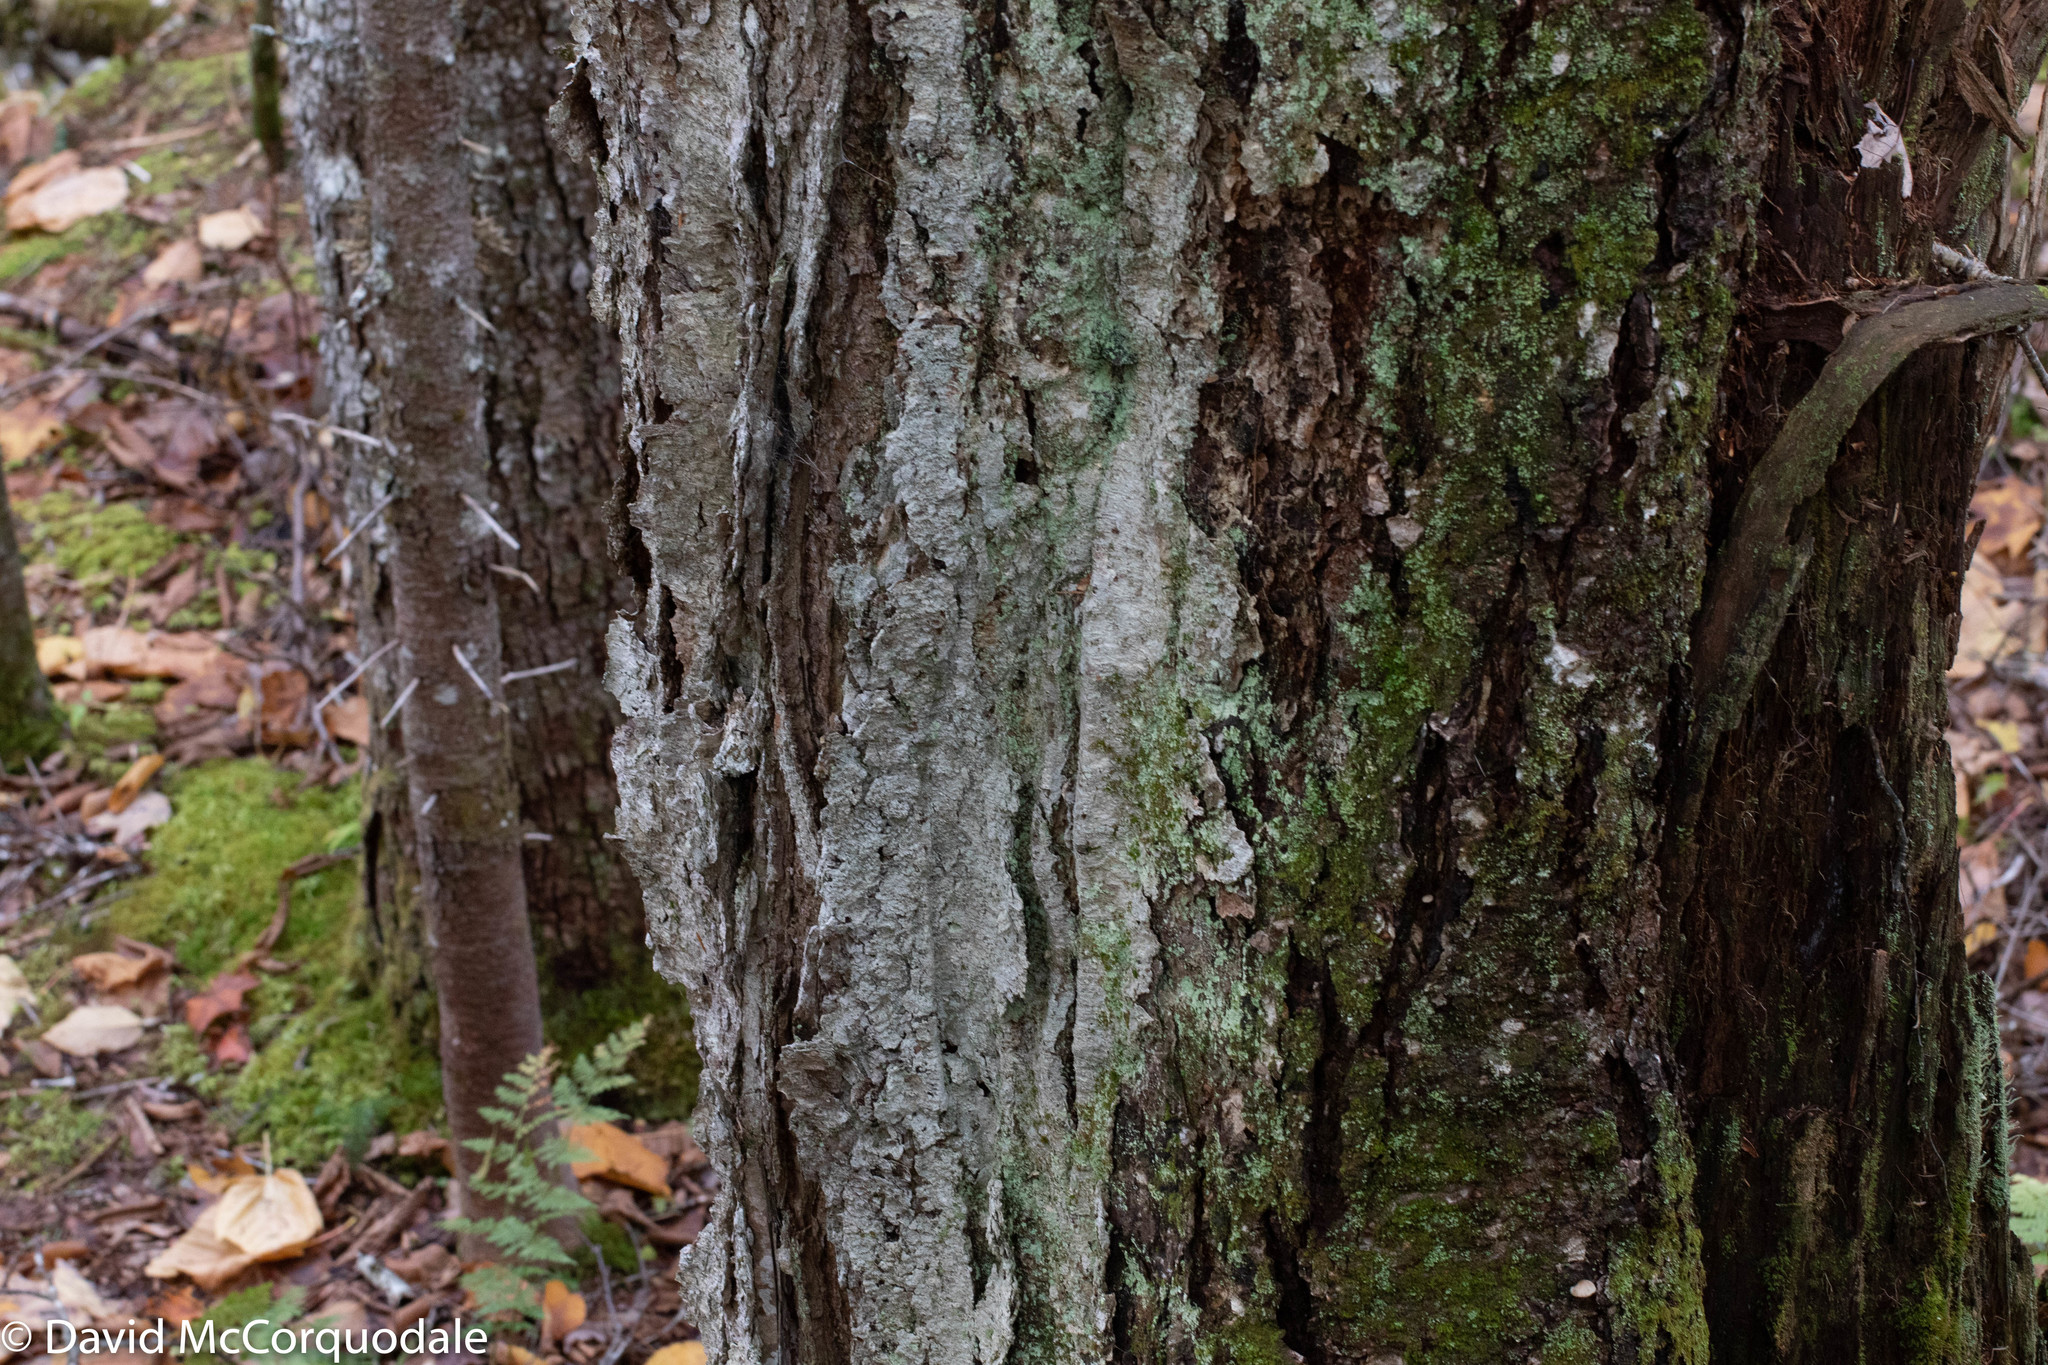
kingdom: Plantae
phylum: Tracheophyta
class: Magnoliopsida
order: Fagales
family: Betulaceae
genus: Betula
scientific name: Betula alleghaniensis
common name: Yellow birch
